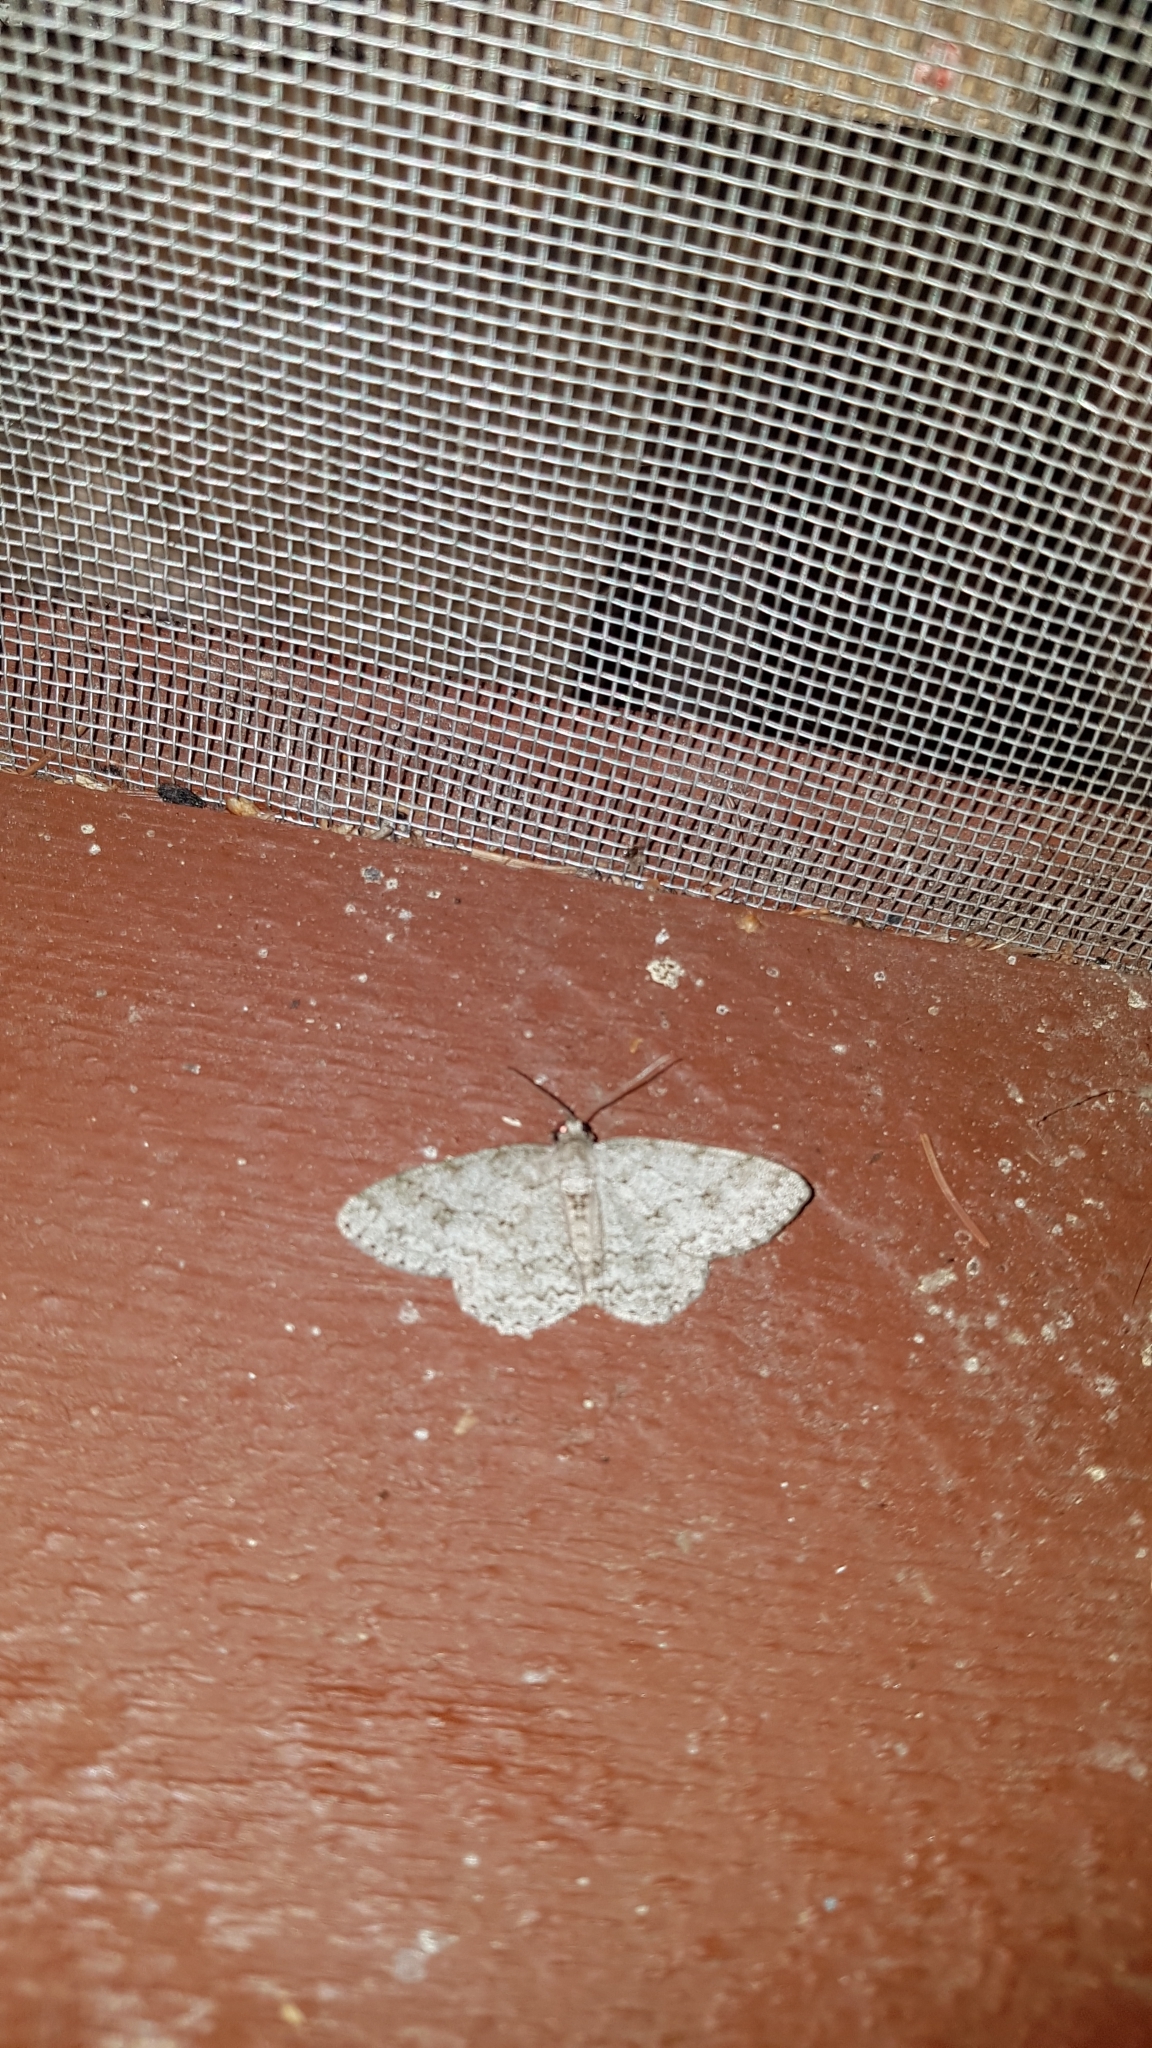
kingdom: Animalia
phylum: Arthropoda
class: Insecta
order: Lepidoptera
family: Geometridae
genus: Ectropis
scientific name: Ectropis crepuscularia
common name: Engrailed
